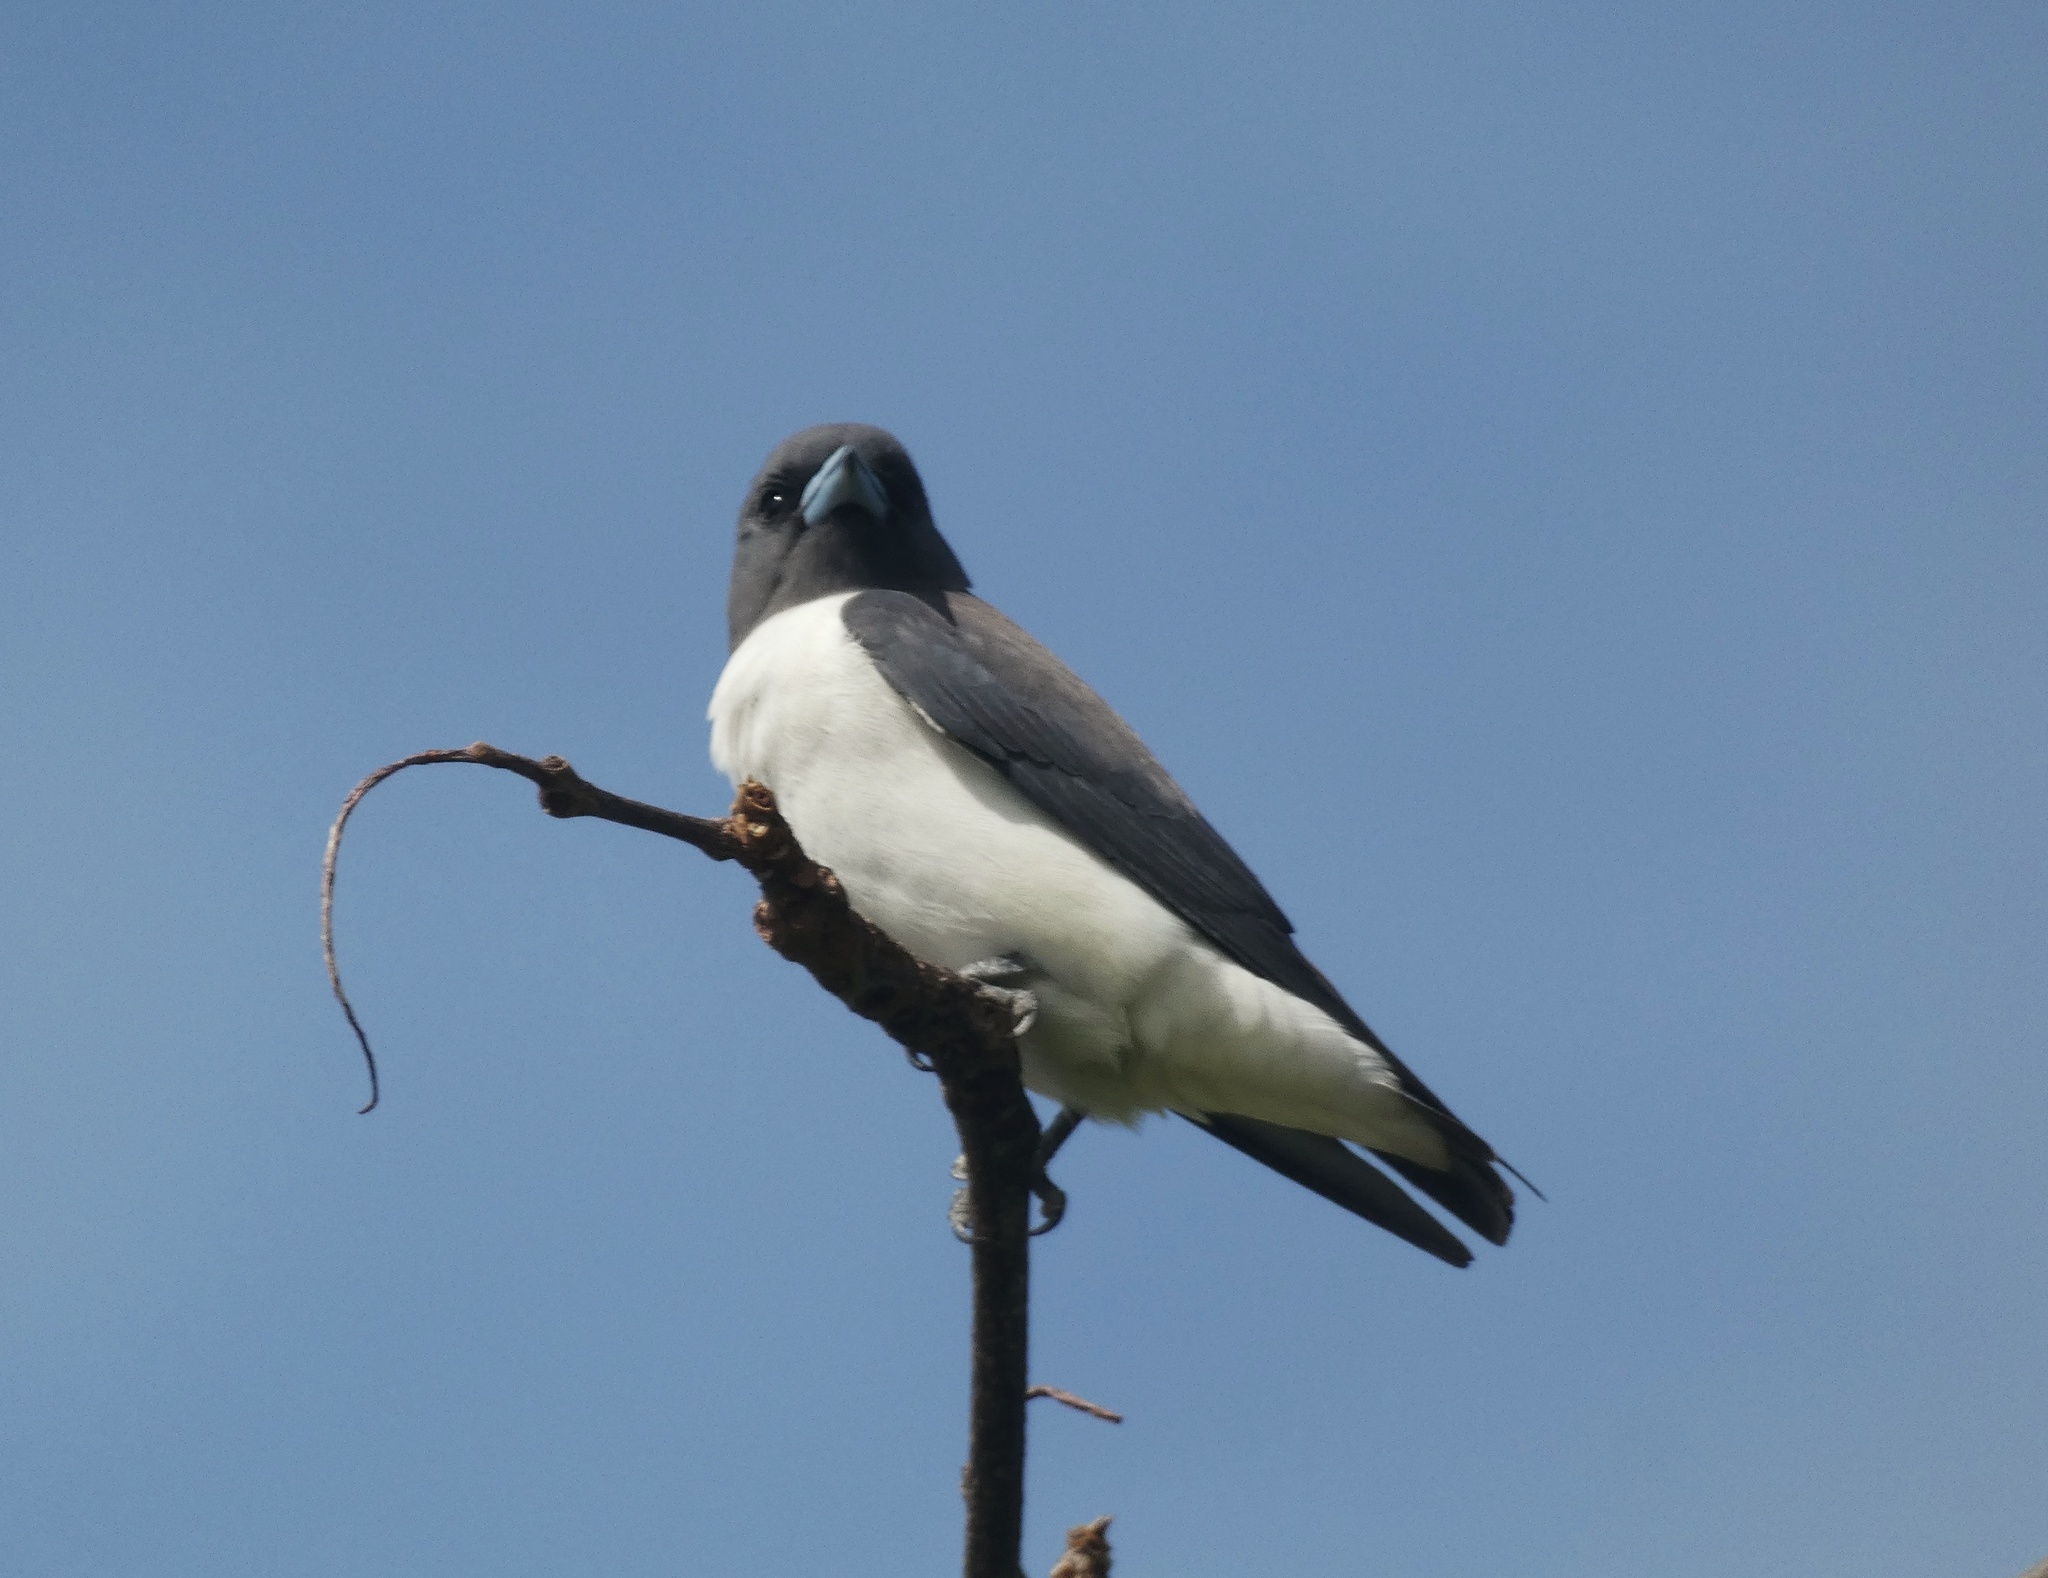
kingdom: Animalia
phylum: Chordata
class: Aves
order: Passeriformes
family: Artamidae
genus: Artamus
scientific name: Artamus leucoryn
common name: White-breasted woodswallow
